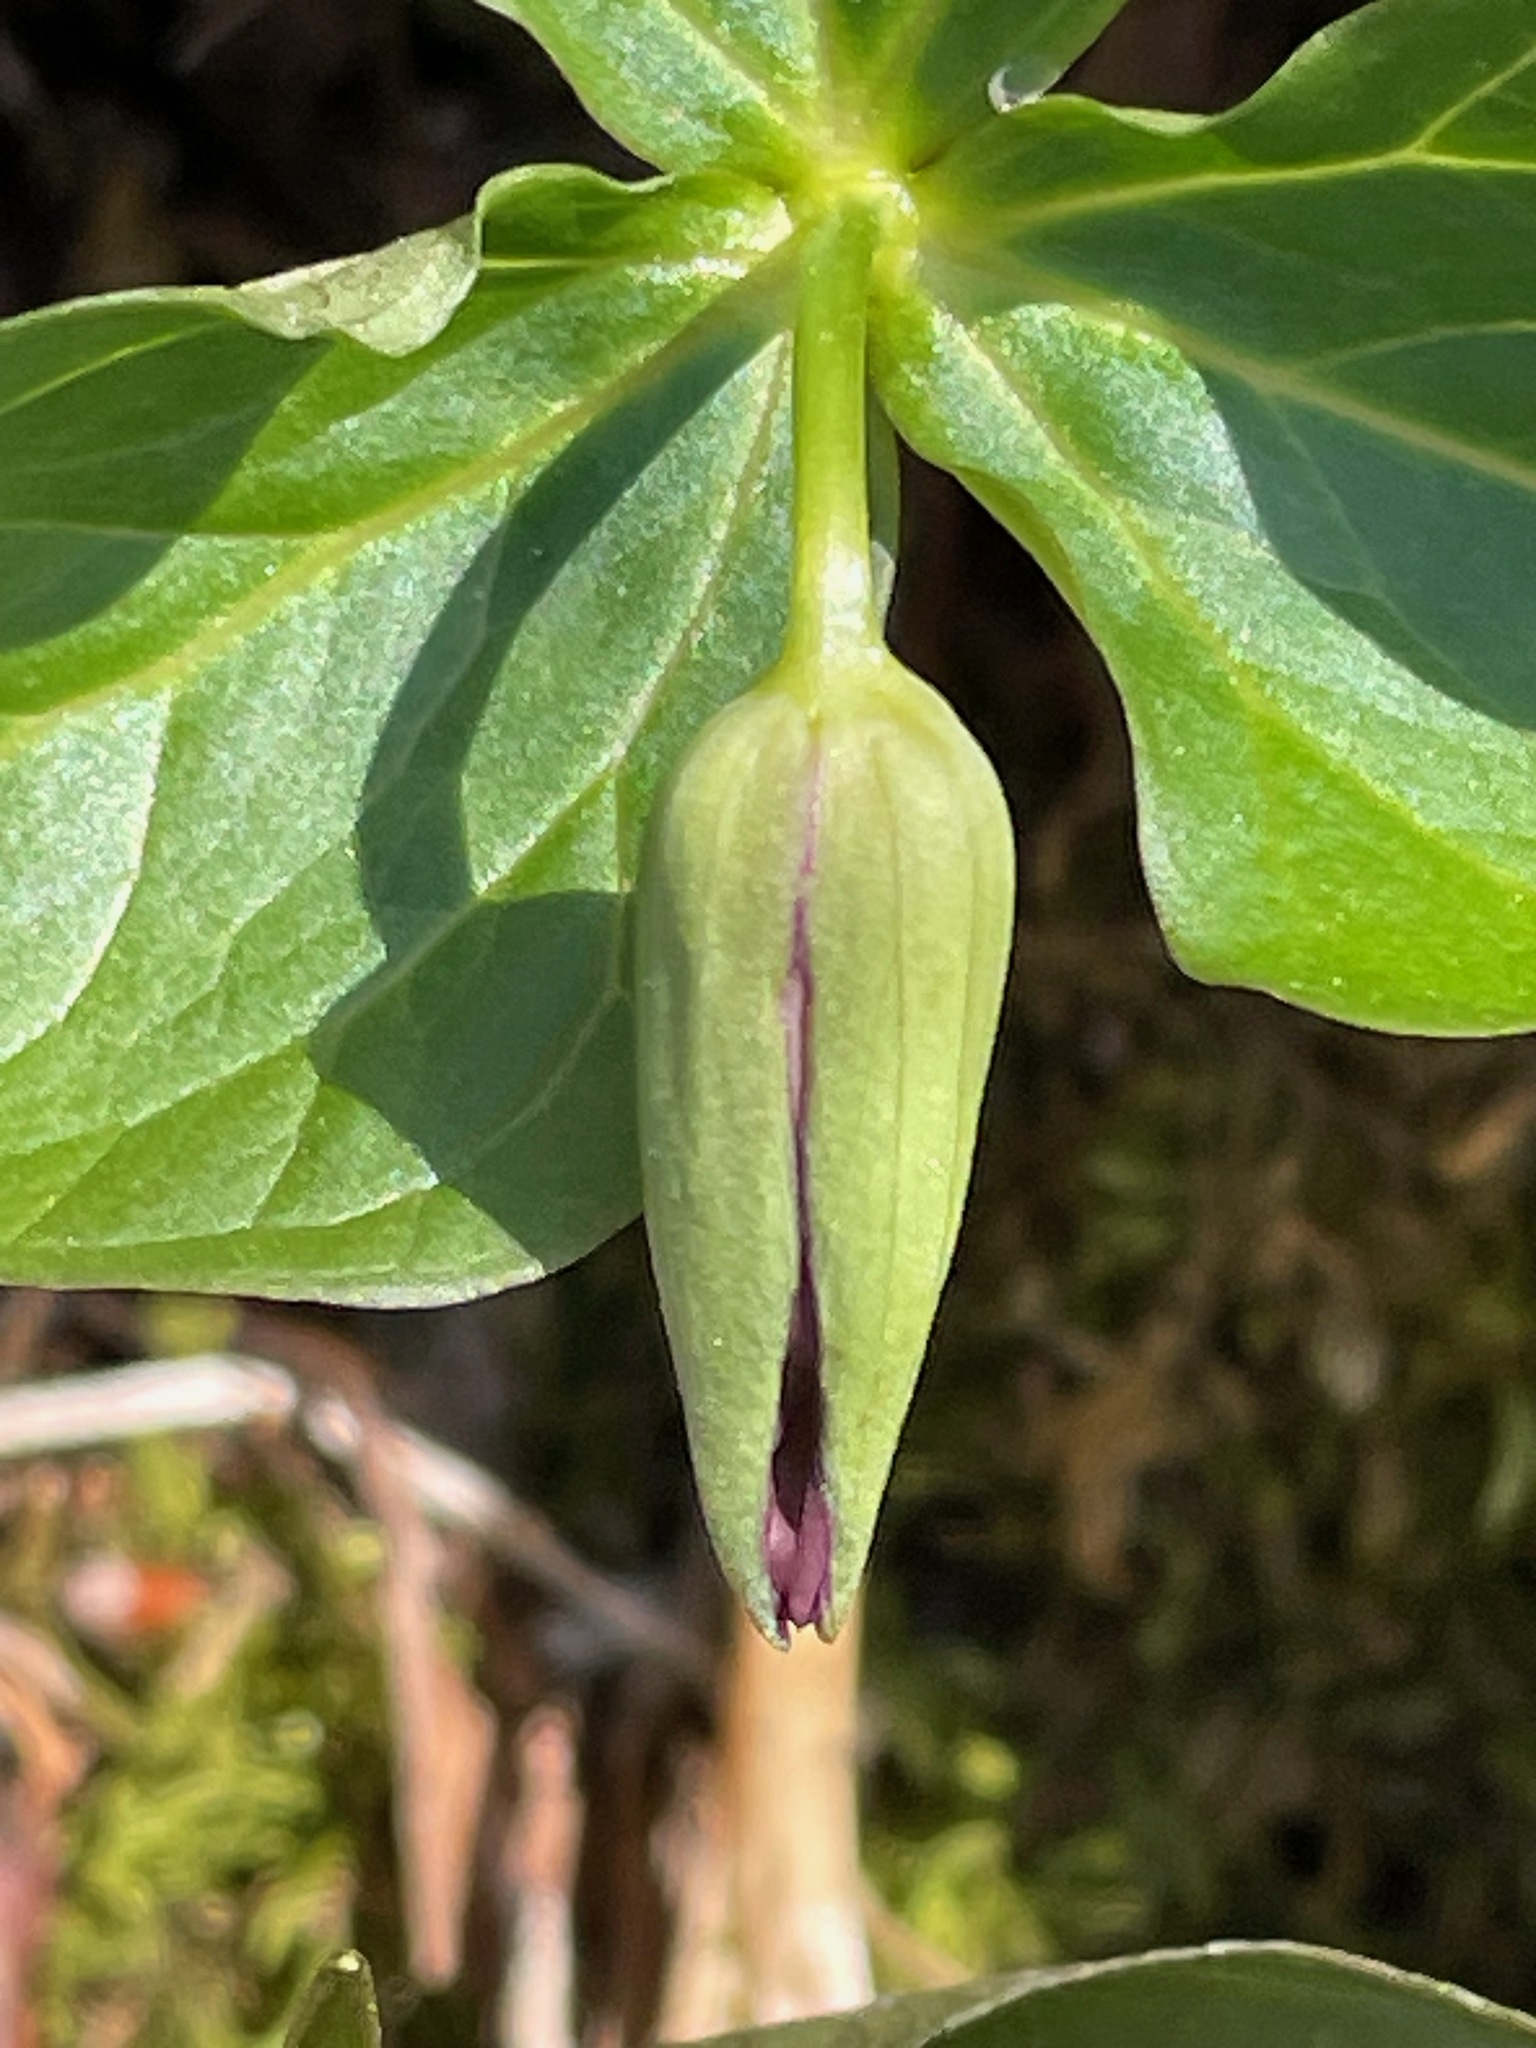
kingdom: Plantae
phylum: Tracheophyta
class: Liliopsida
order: Liliales
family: Melanthiaceae
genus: Trillium
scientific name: Trillium erectum
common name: Purple trillium
